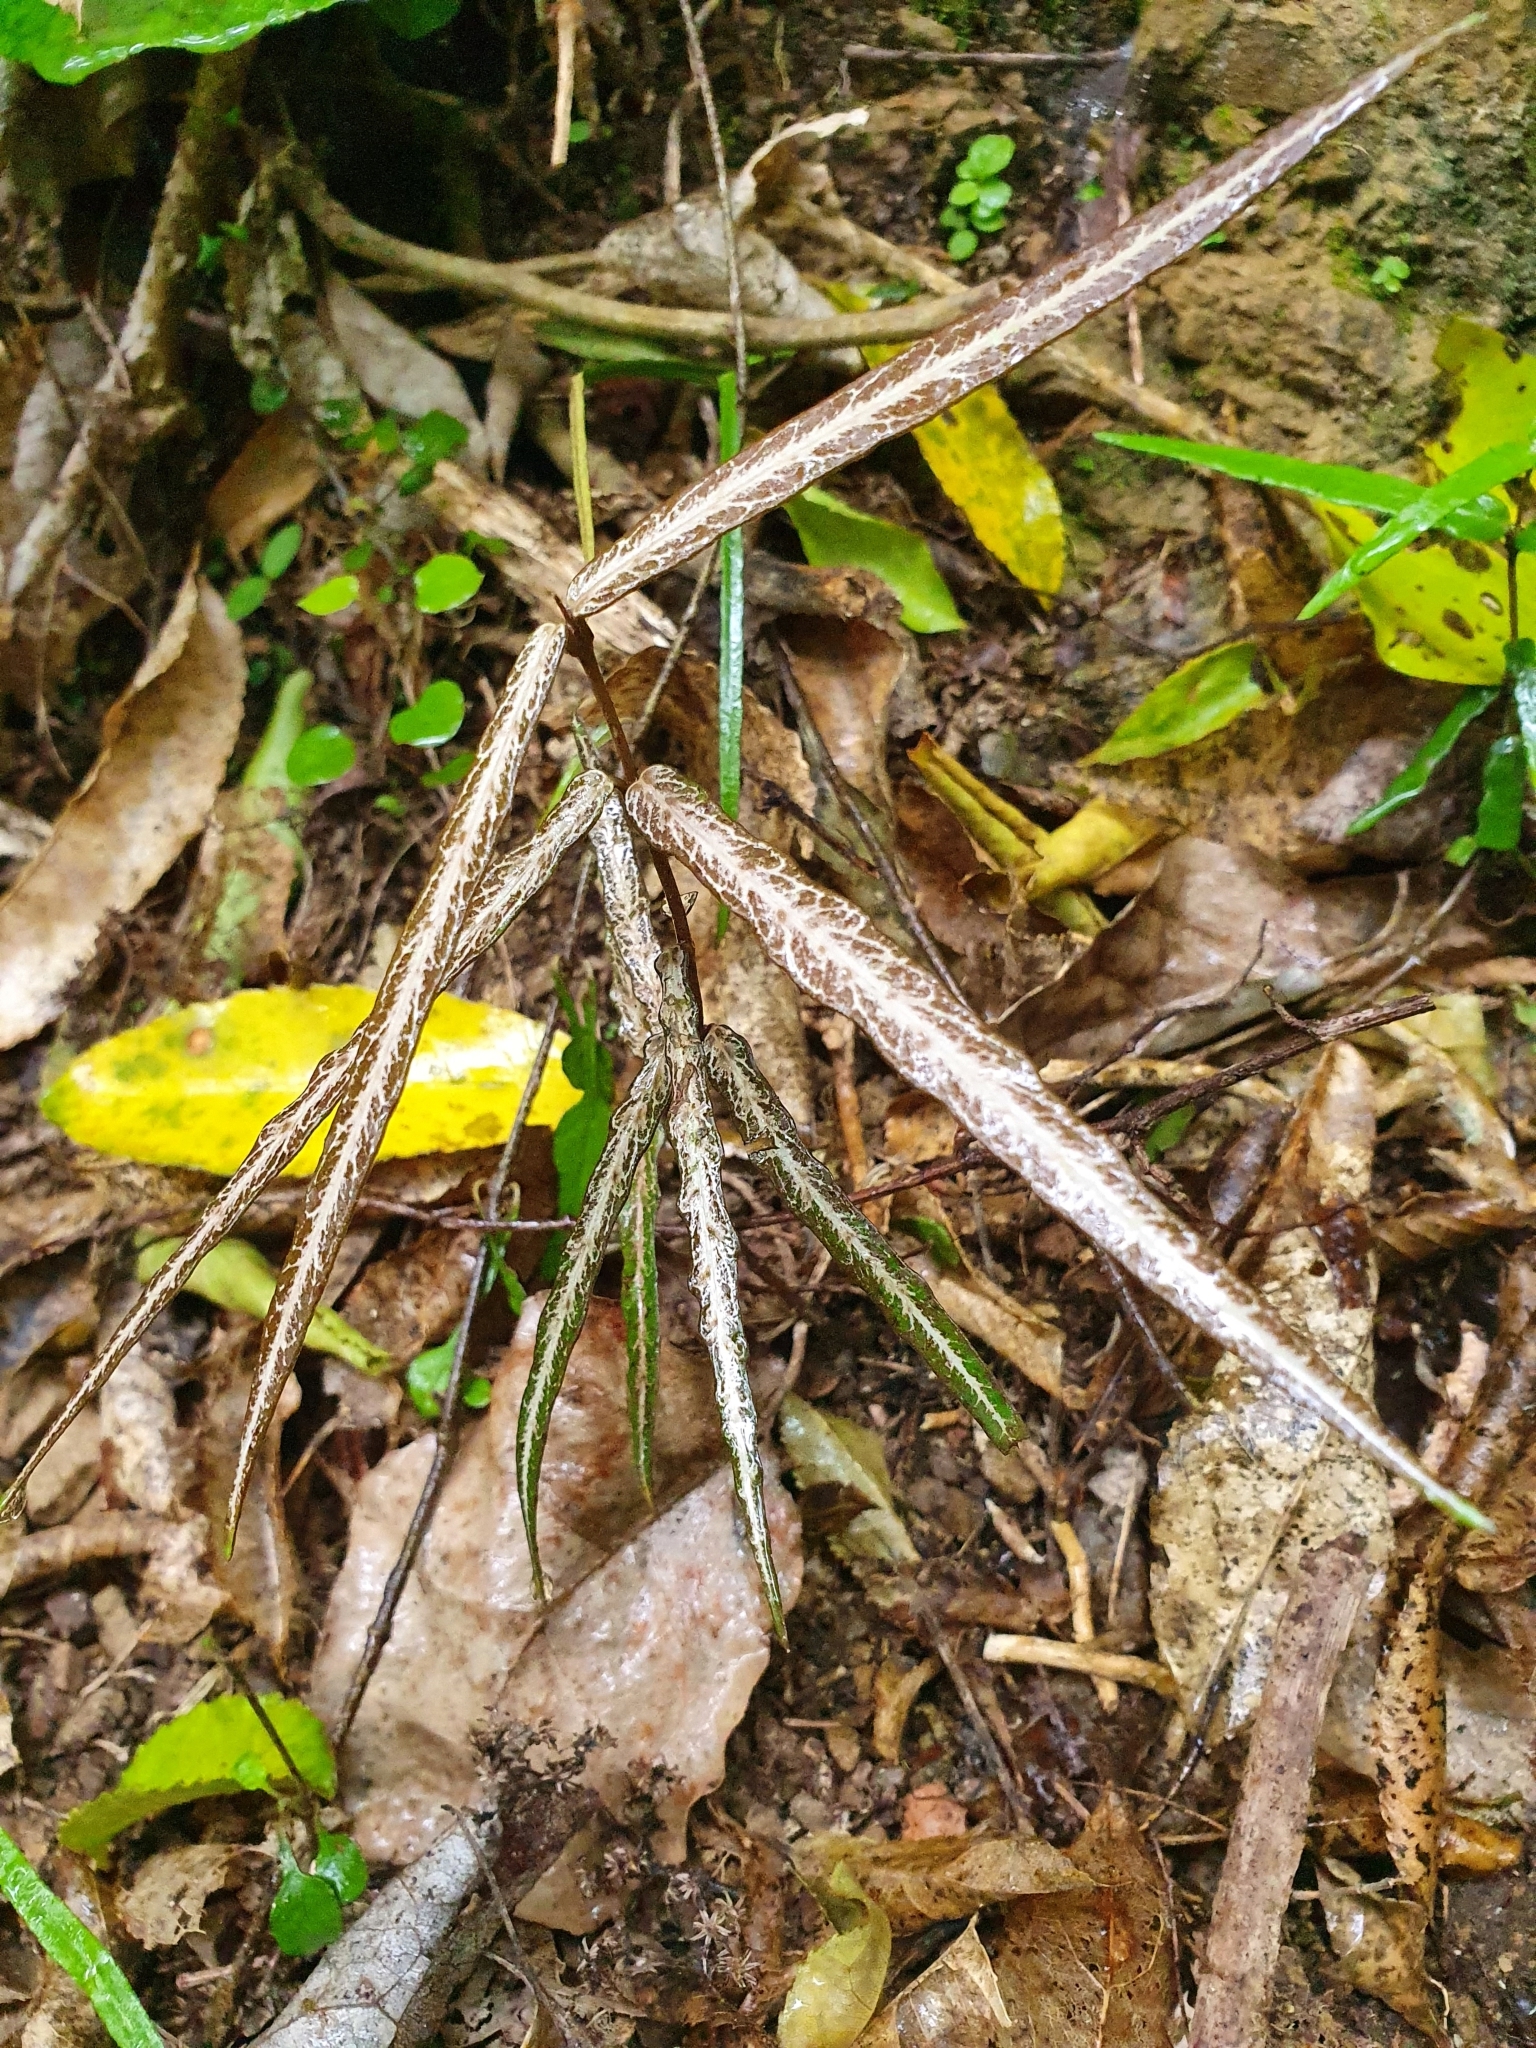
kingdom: Plantae
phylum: Tracheophyta
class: Magnoliopsida
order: Gentianales
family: Apocynaceae
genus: Parsonsia
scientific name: Parsonsia heterophylla
